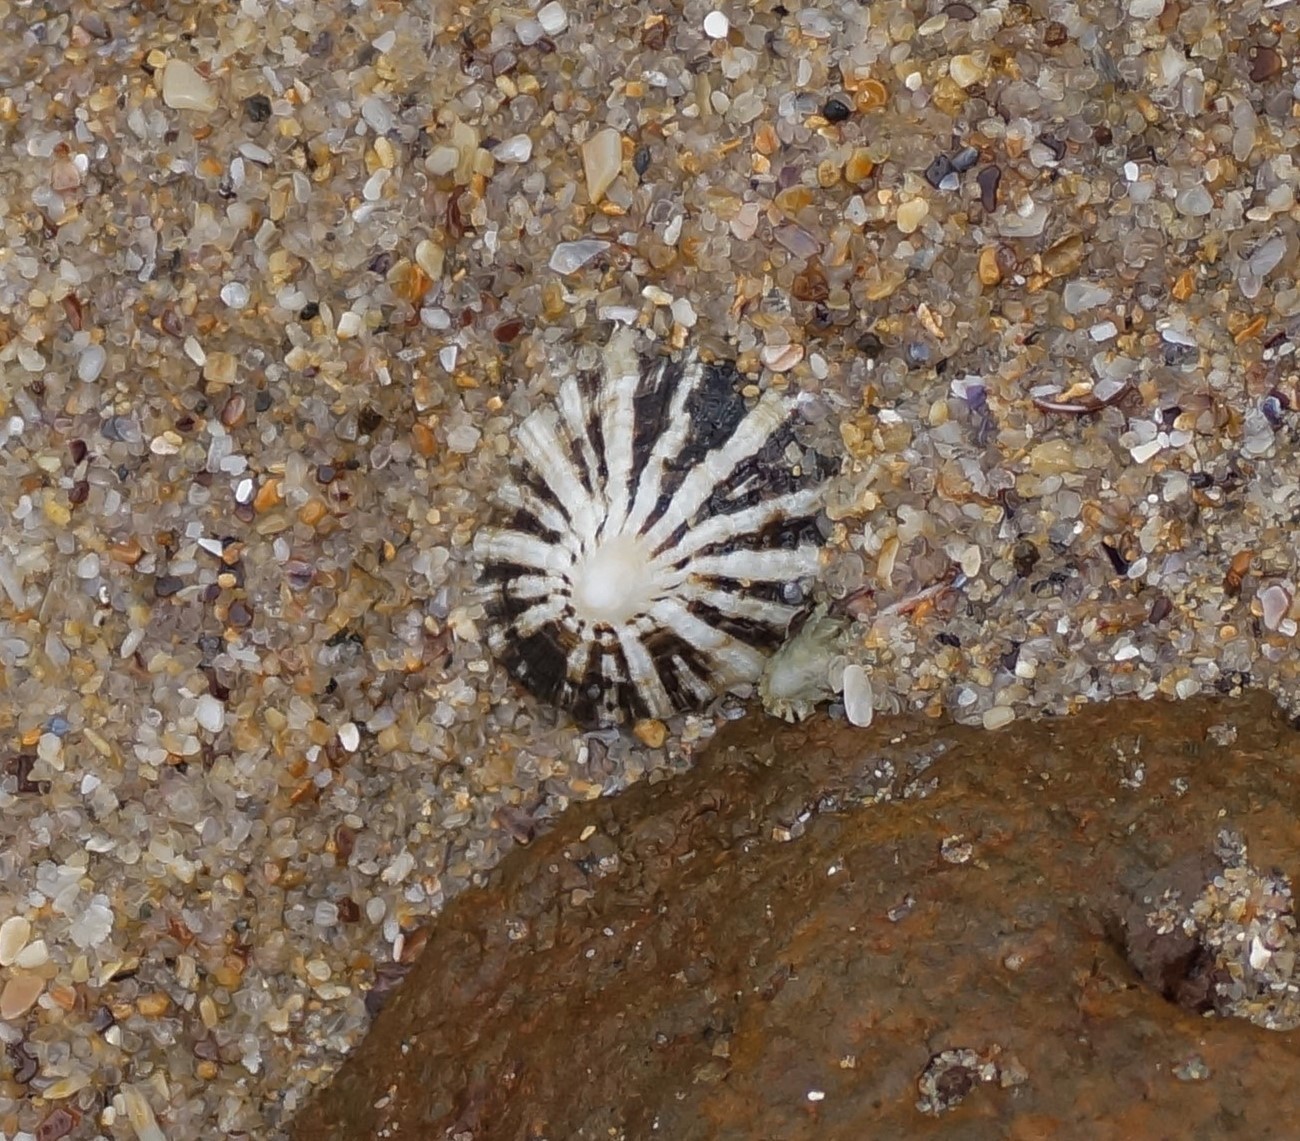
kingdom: Animalia
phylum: Mollusca
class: Gastropoda
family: Patellidae
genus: Scutellastra
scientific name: Scutellastra peronii
